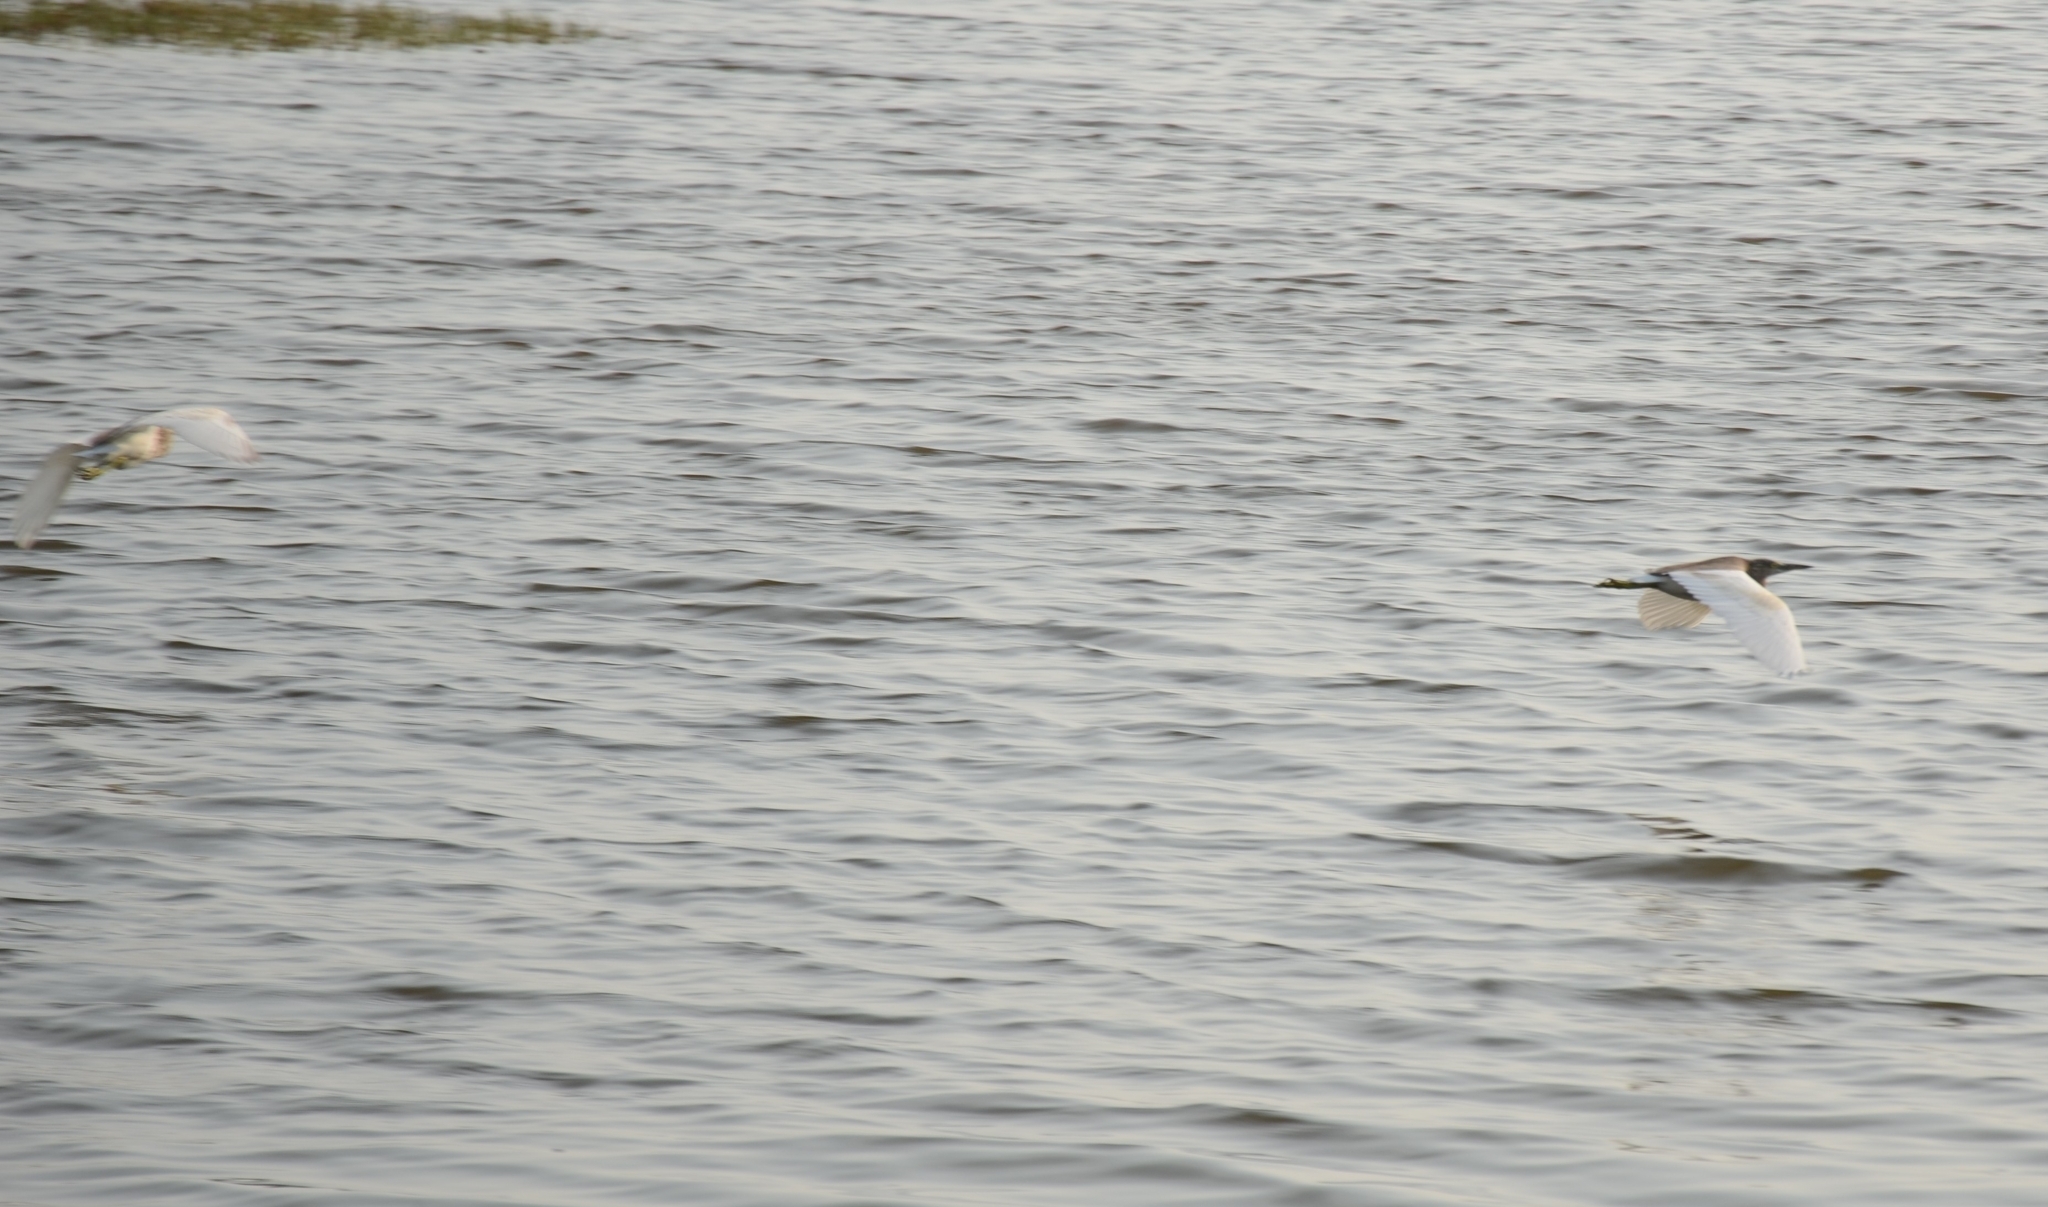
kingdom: Animalia
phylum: Chordata
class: Aves
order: Pelecaniformes
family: Ardeidae
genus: Ardeola
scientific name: Ardeola grayii
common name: Indian pond heron
